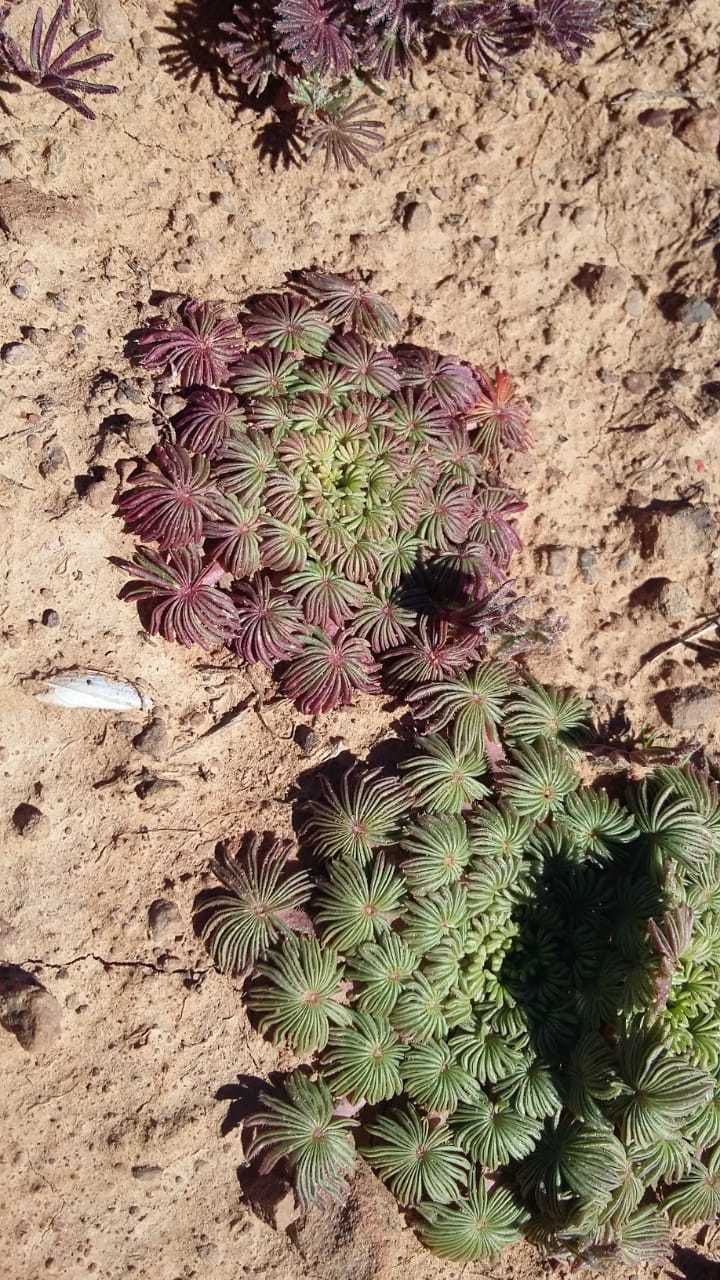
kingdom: Plantae
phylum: Tracheophyta
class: Magnoliopsida
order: Oxalidales
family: Oxalidaceae
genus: Oxalis
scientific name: Oxalis palmifrons
